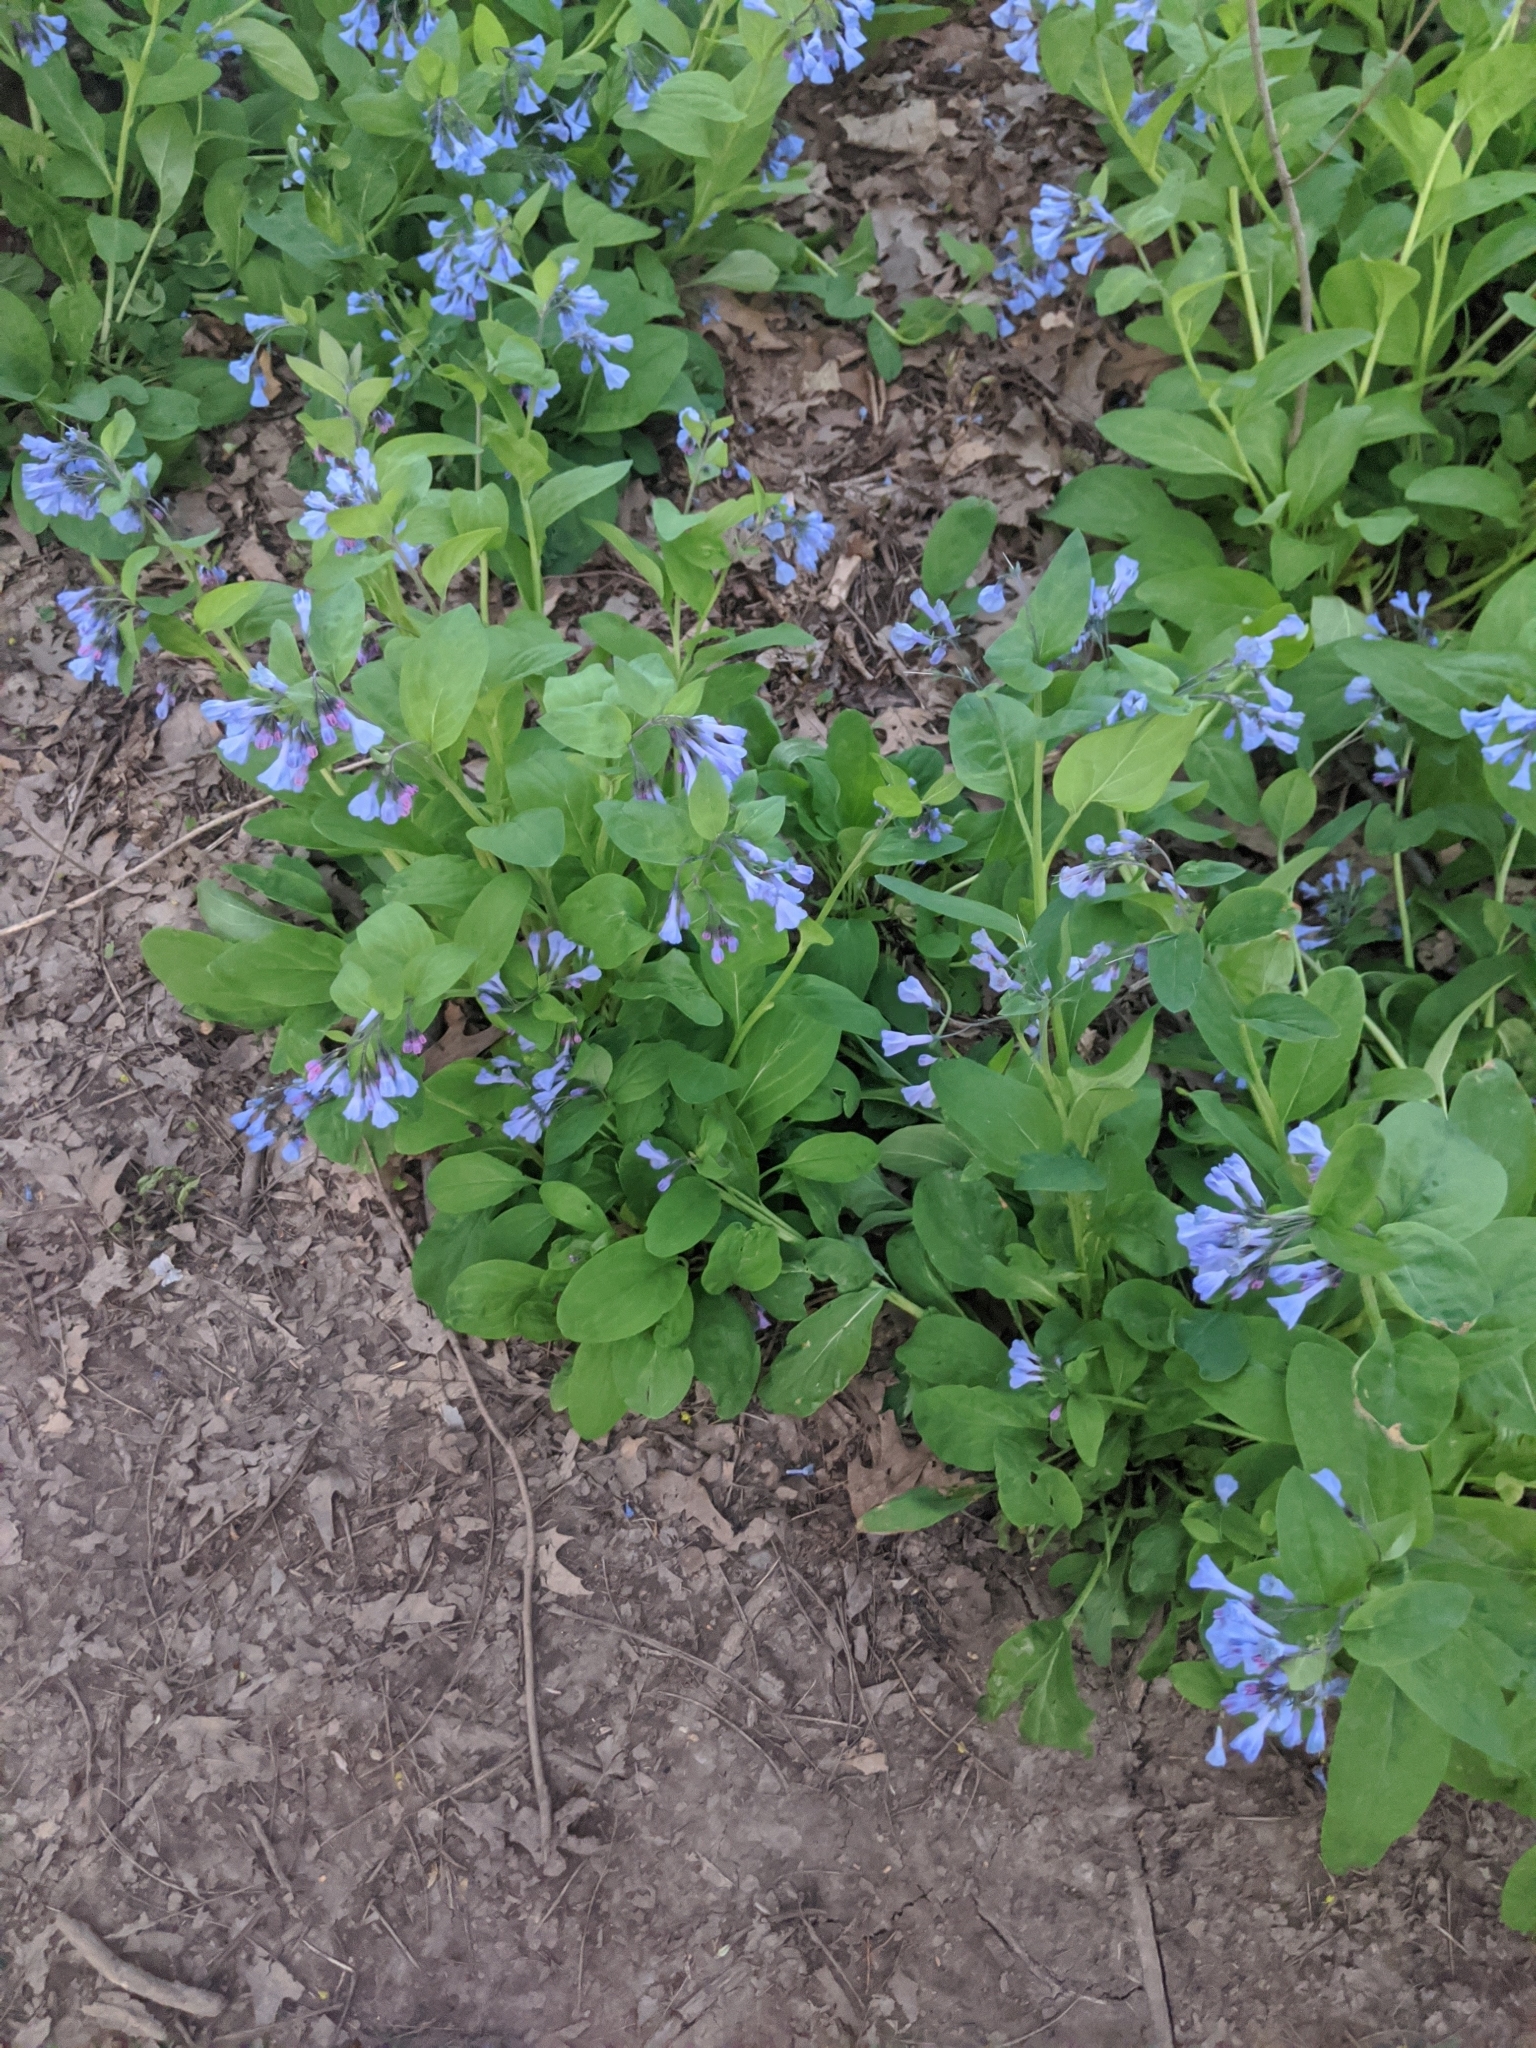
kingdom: Plantae
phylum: Tracheophyta
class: Magnoliopsida
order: Boraginales
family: Boraginaceae
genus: Mertensia
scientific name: Mertensia virginica
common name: Virginia bluebells
